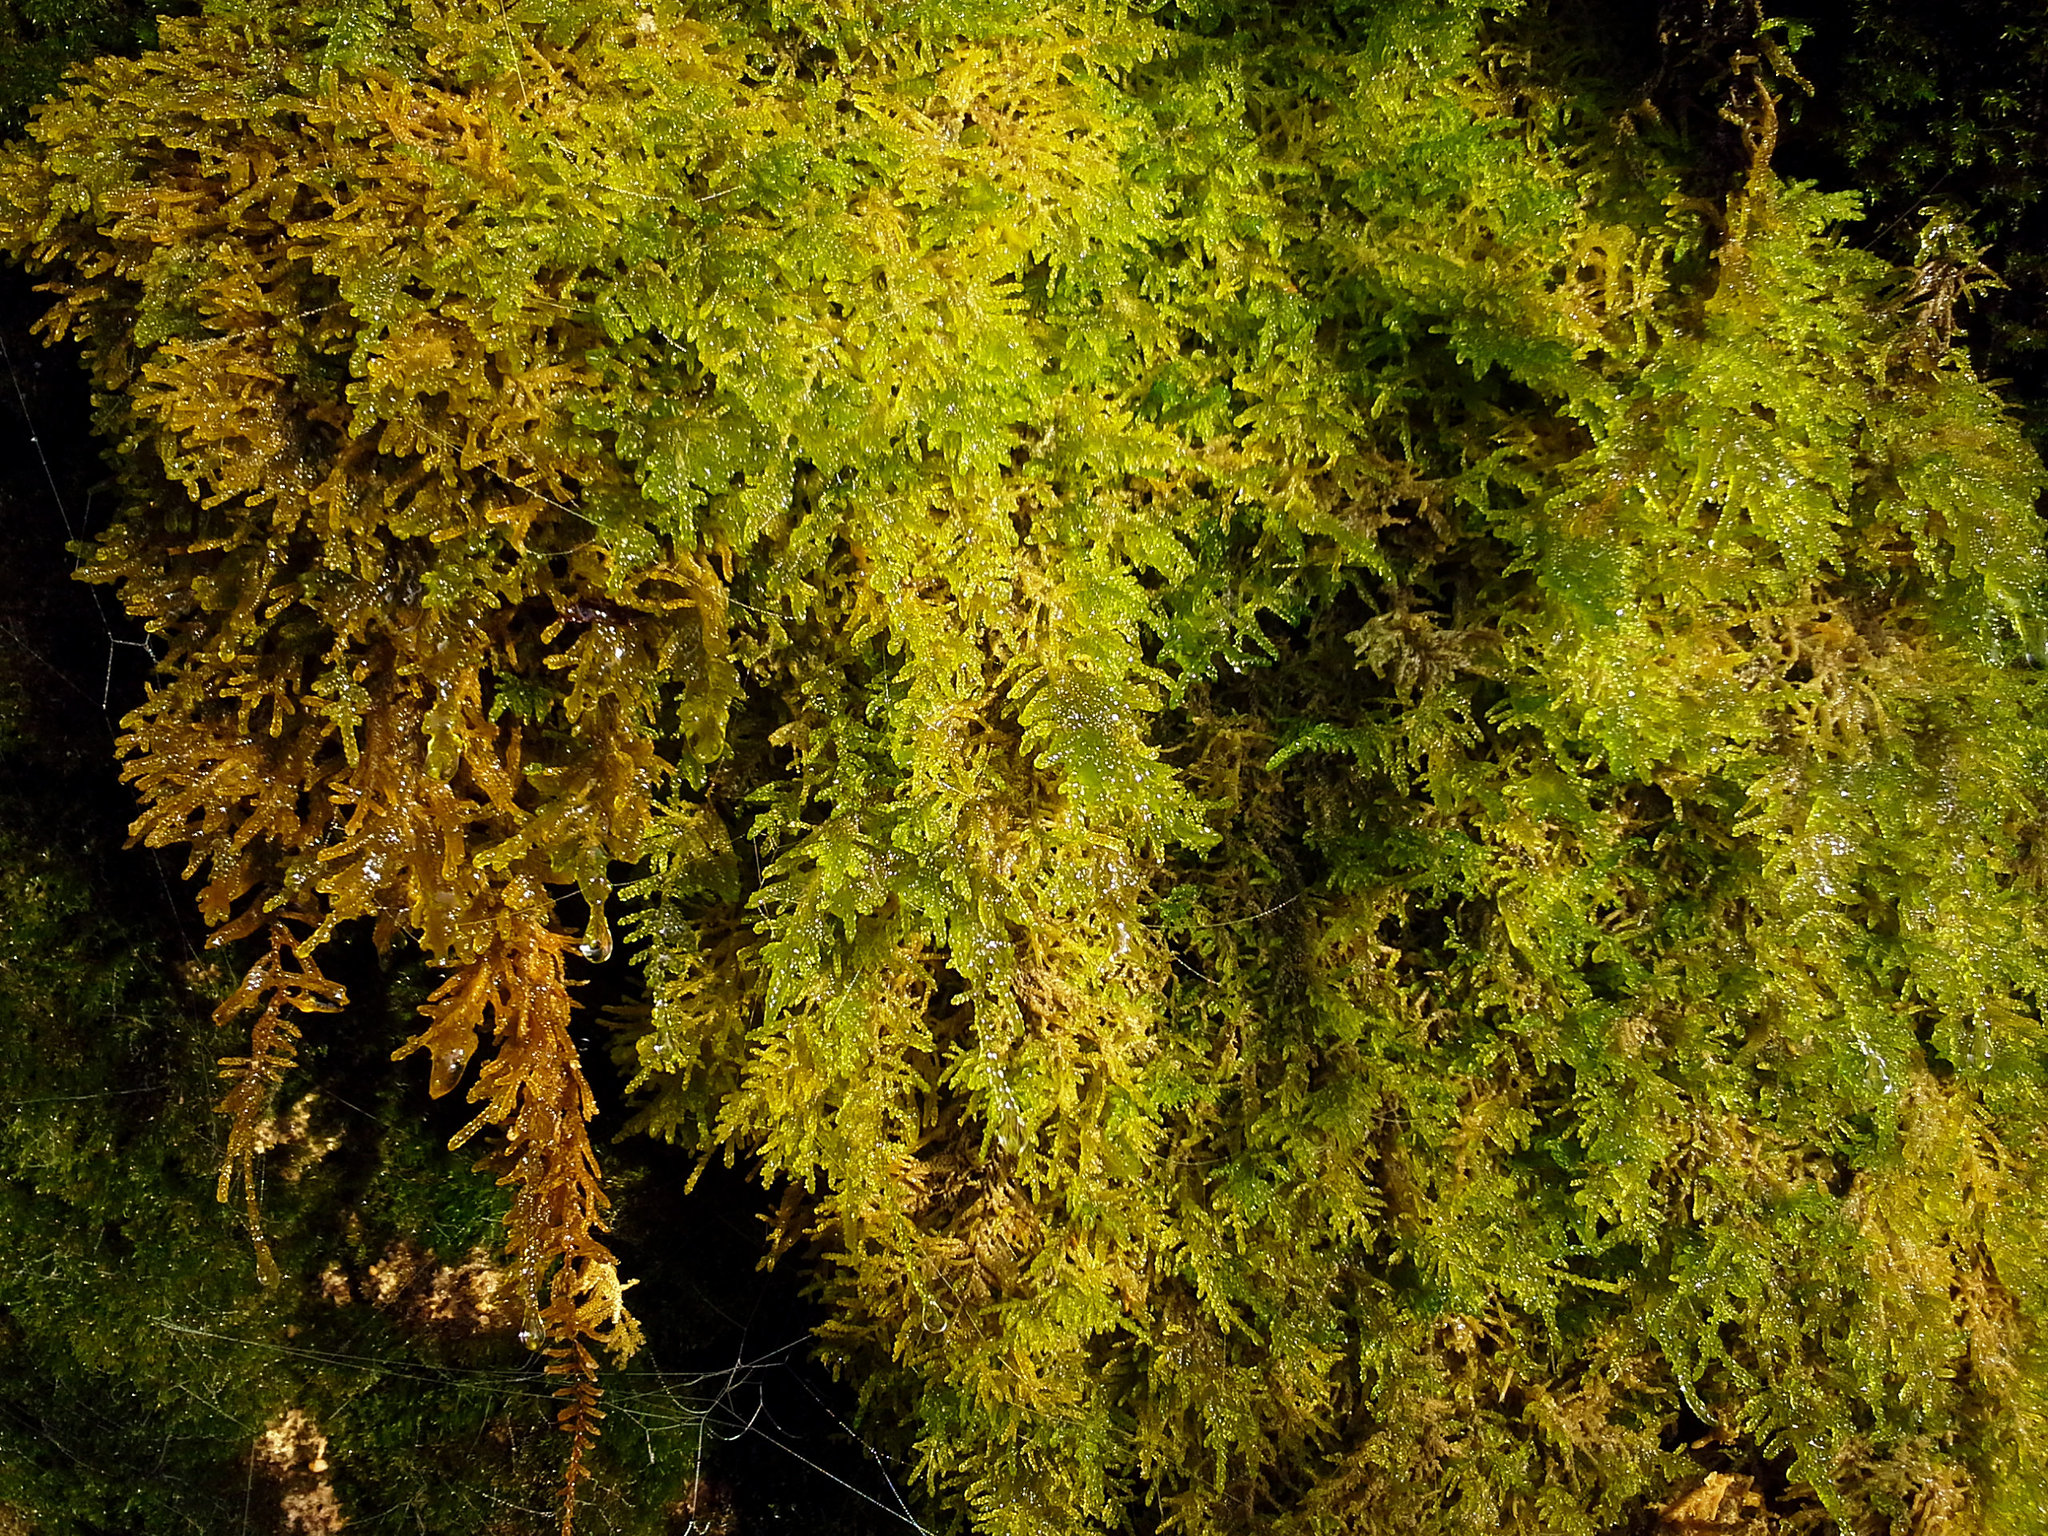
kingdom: Plantae
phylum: Bryophyta
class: Bryopsida
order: Hypnales
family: Amblystegiaceae
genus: Palustriella
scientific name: Palustriella commutata
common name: Curled hook-moss
